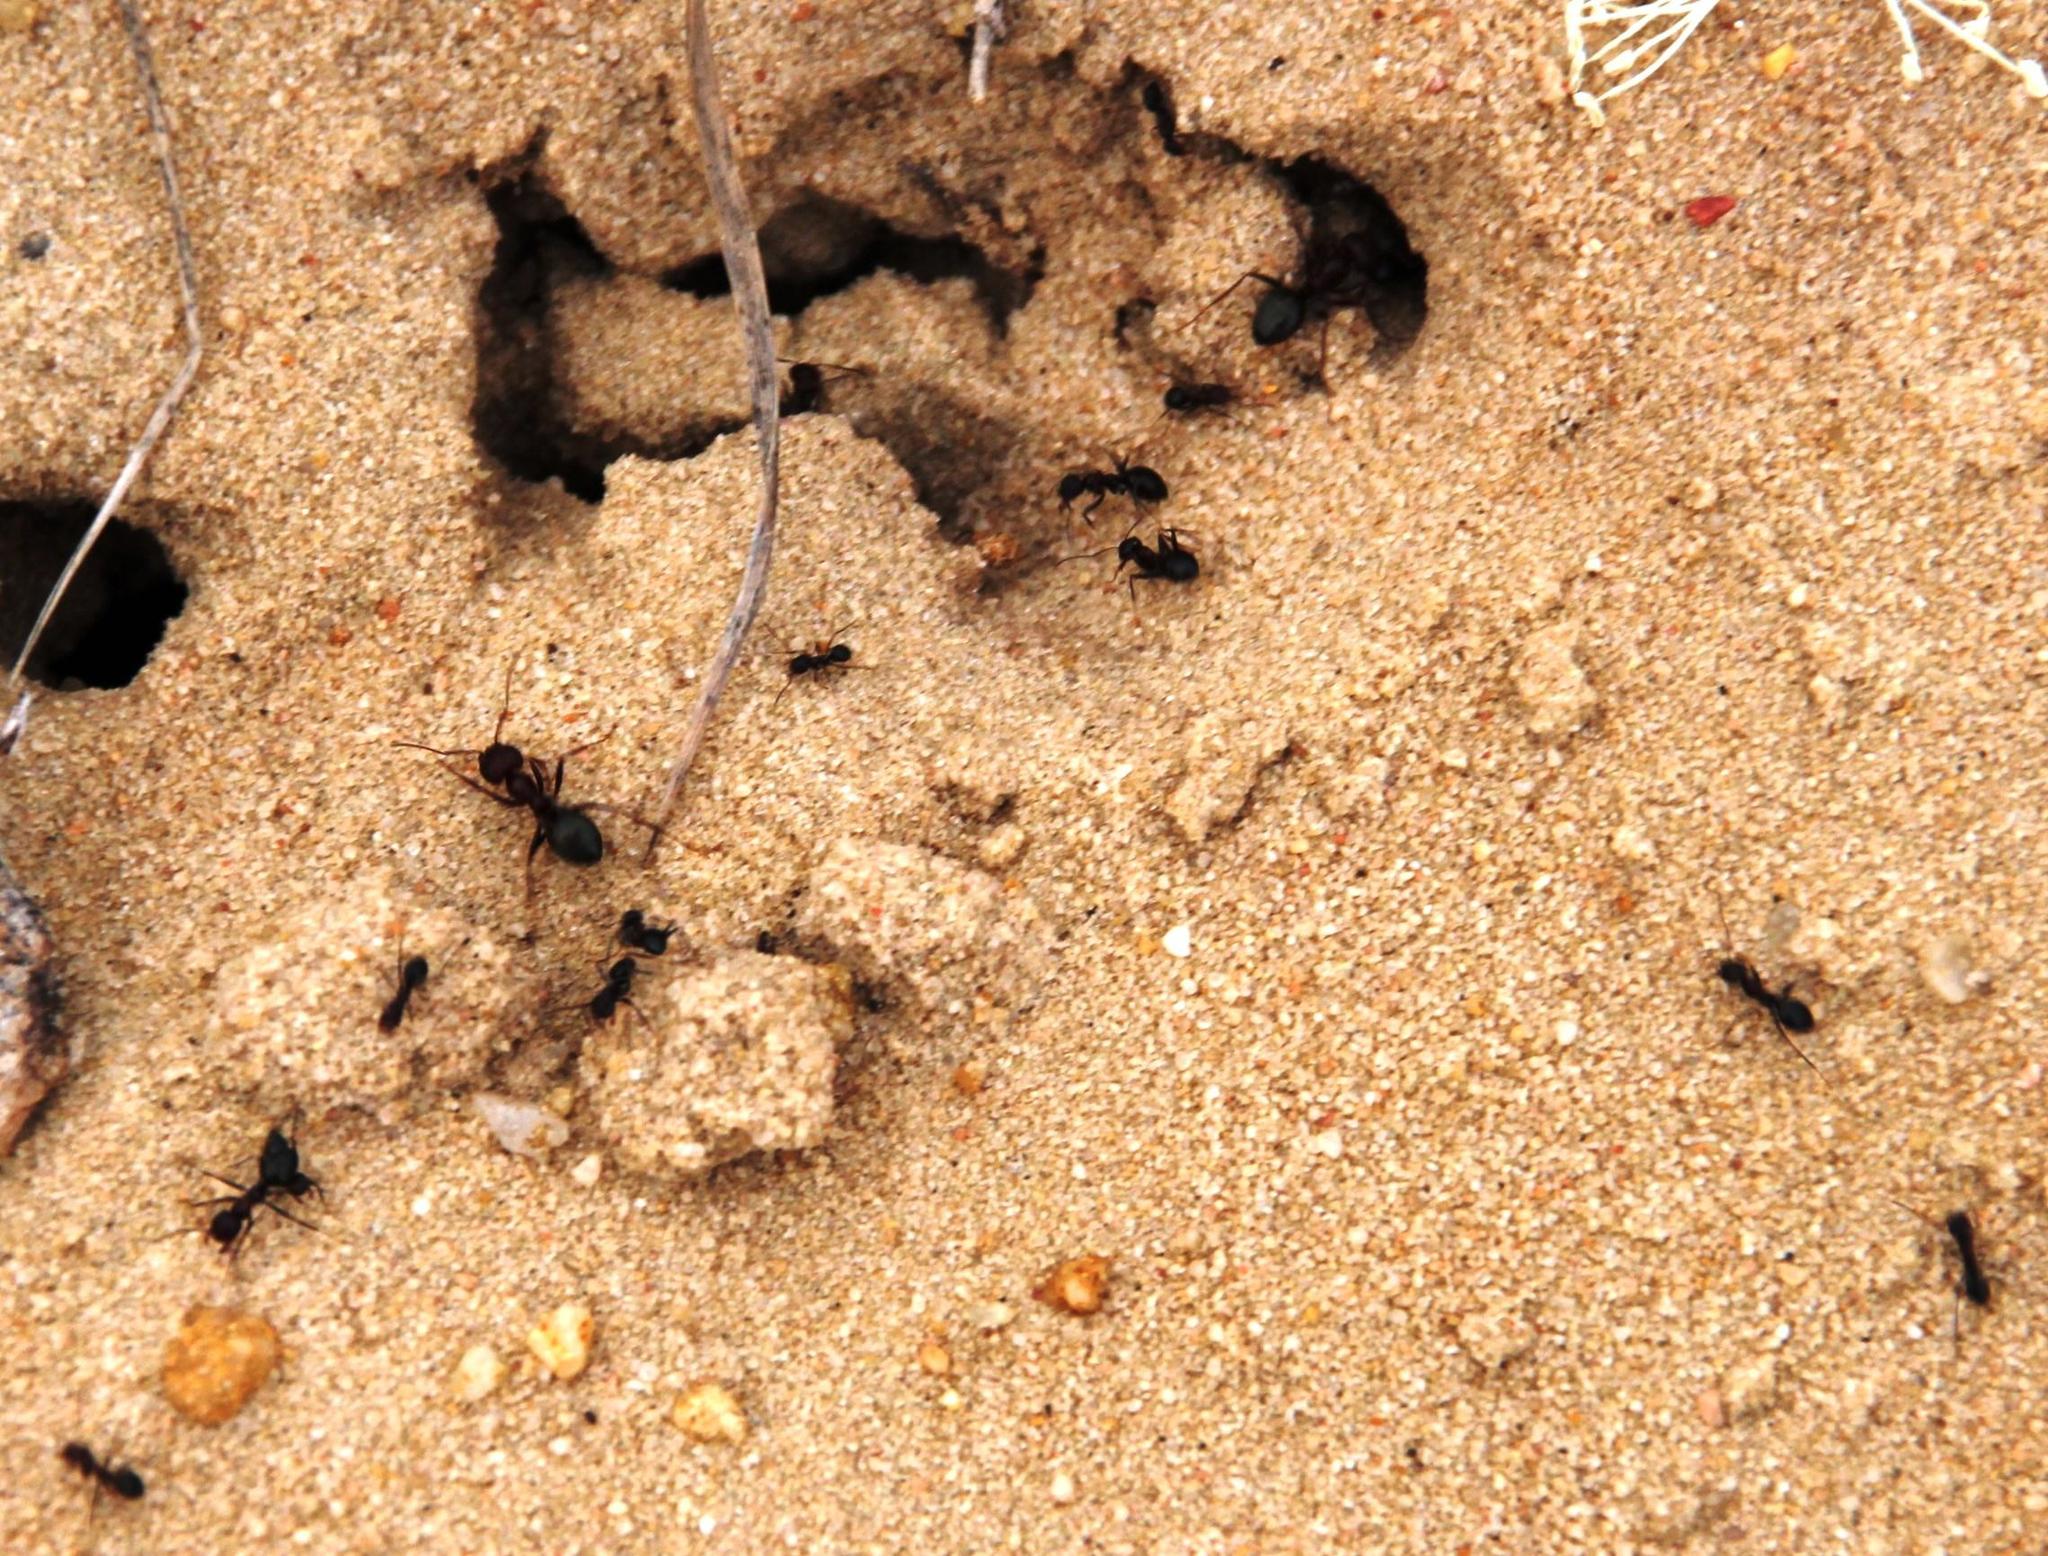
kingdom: Animalia
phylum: Arthropoda
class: Insecta
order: Hymenoptera
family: Formicidae
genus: Anoplolepis
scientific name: Anoplolepis steingroeveri
